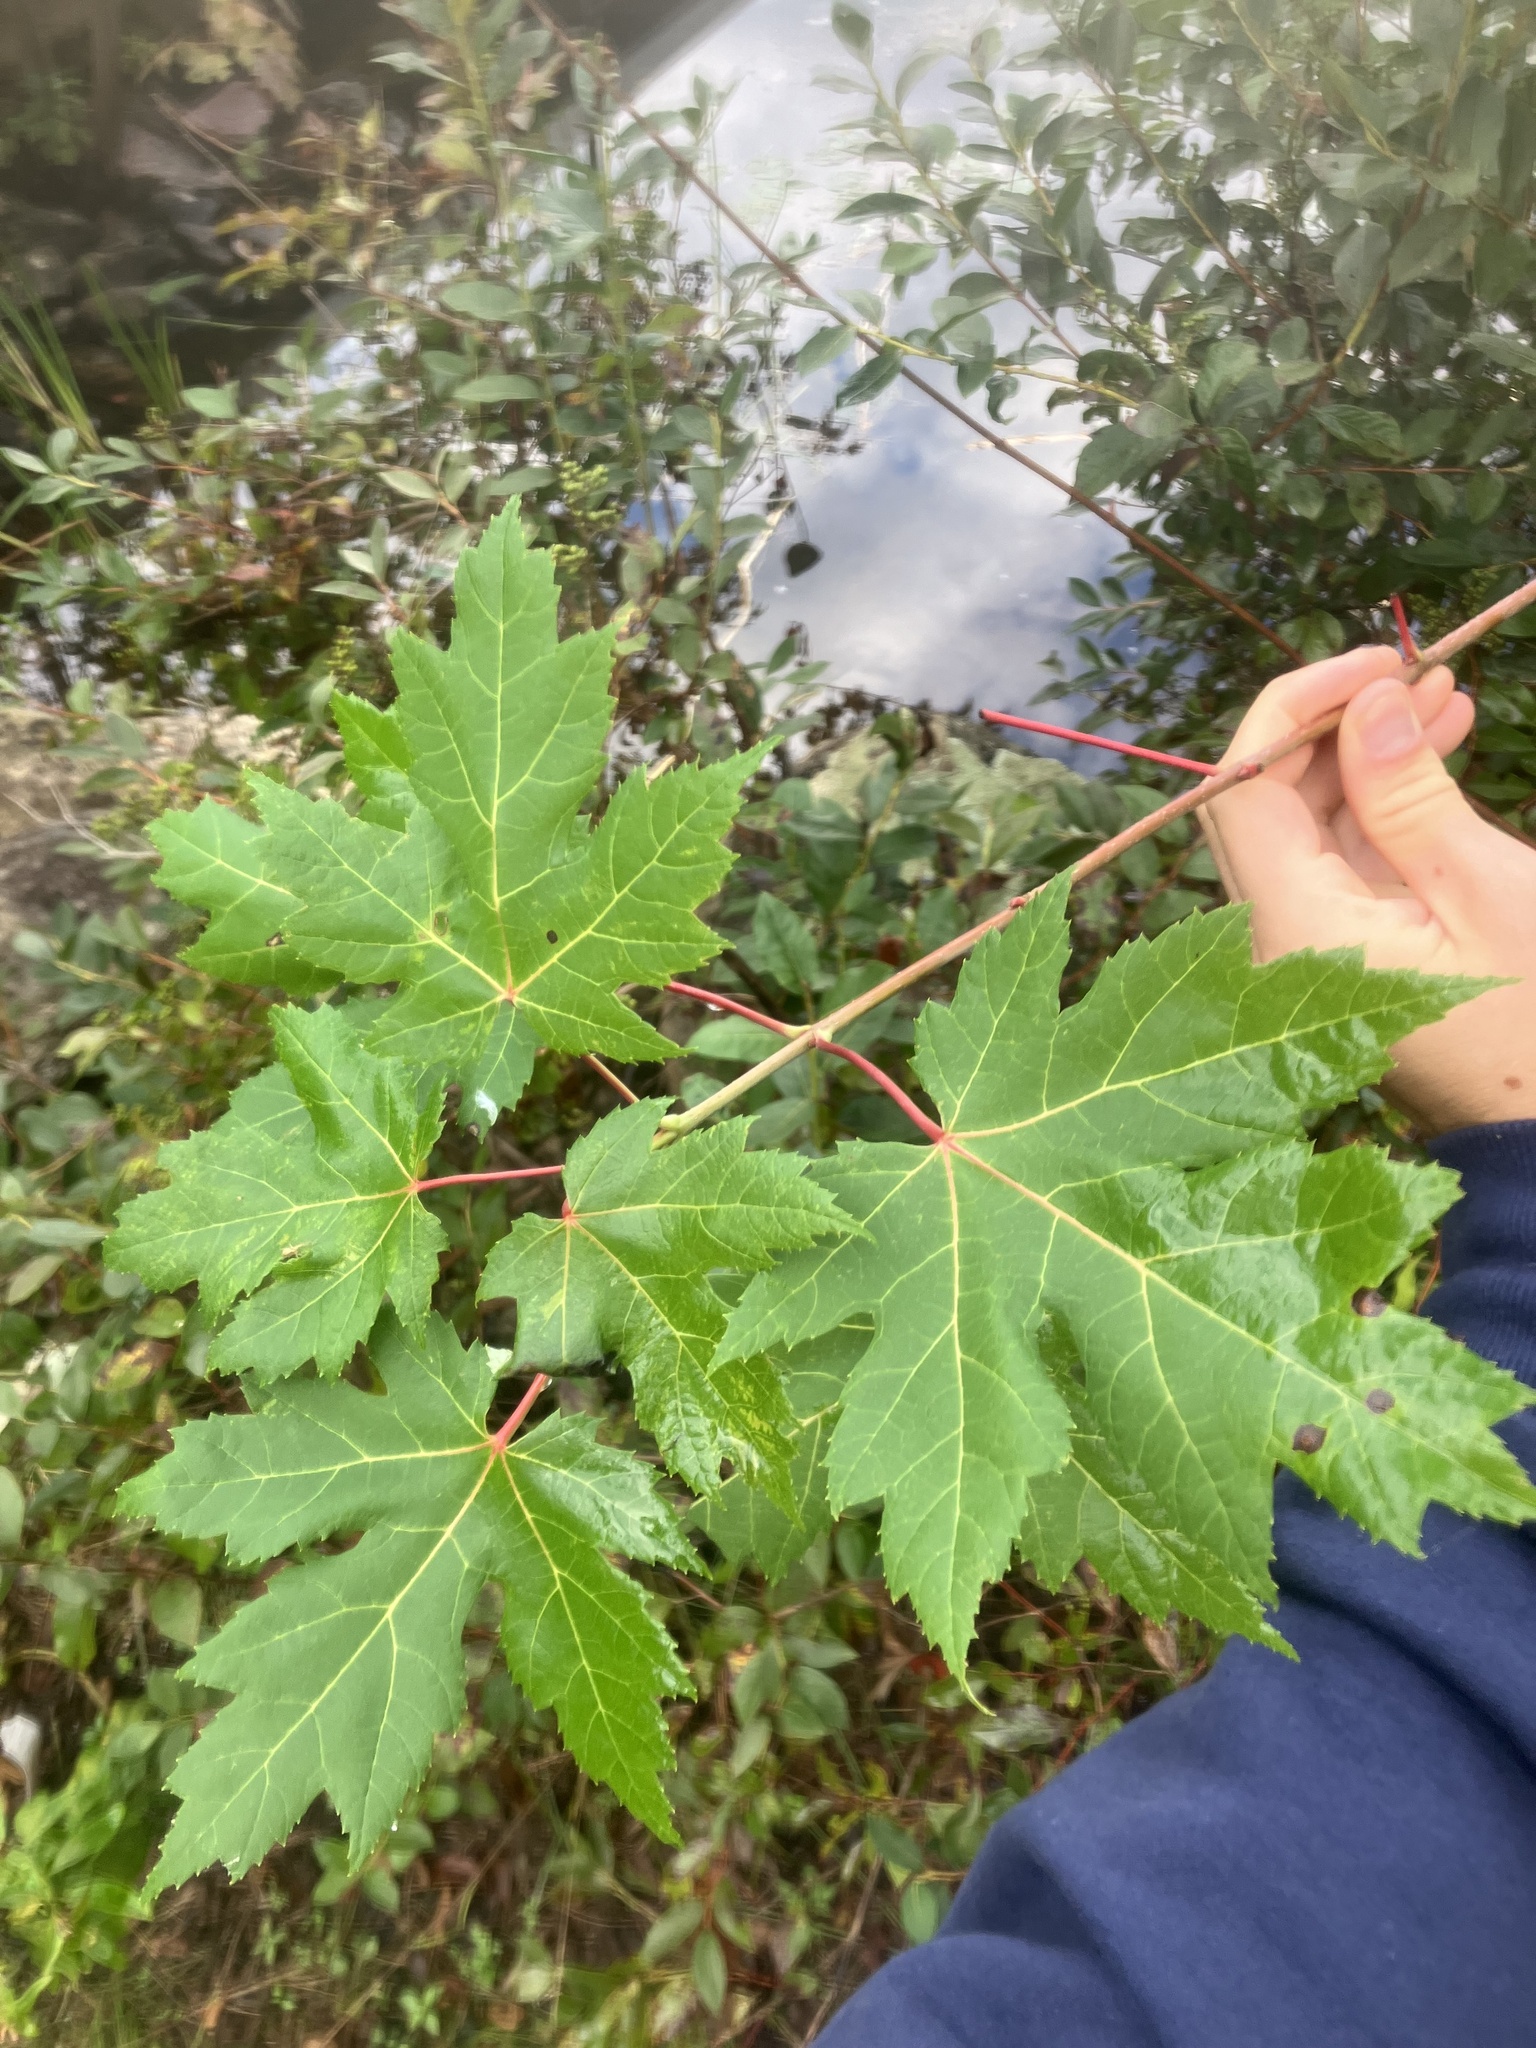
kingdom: Plantae
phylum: Tracheophyta
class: Magnoliopsida
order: Sapindales
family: Sapindaceae
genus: Acer
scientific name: Acer saccharinum
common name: Silver maple
